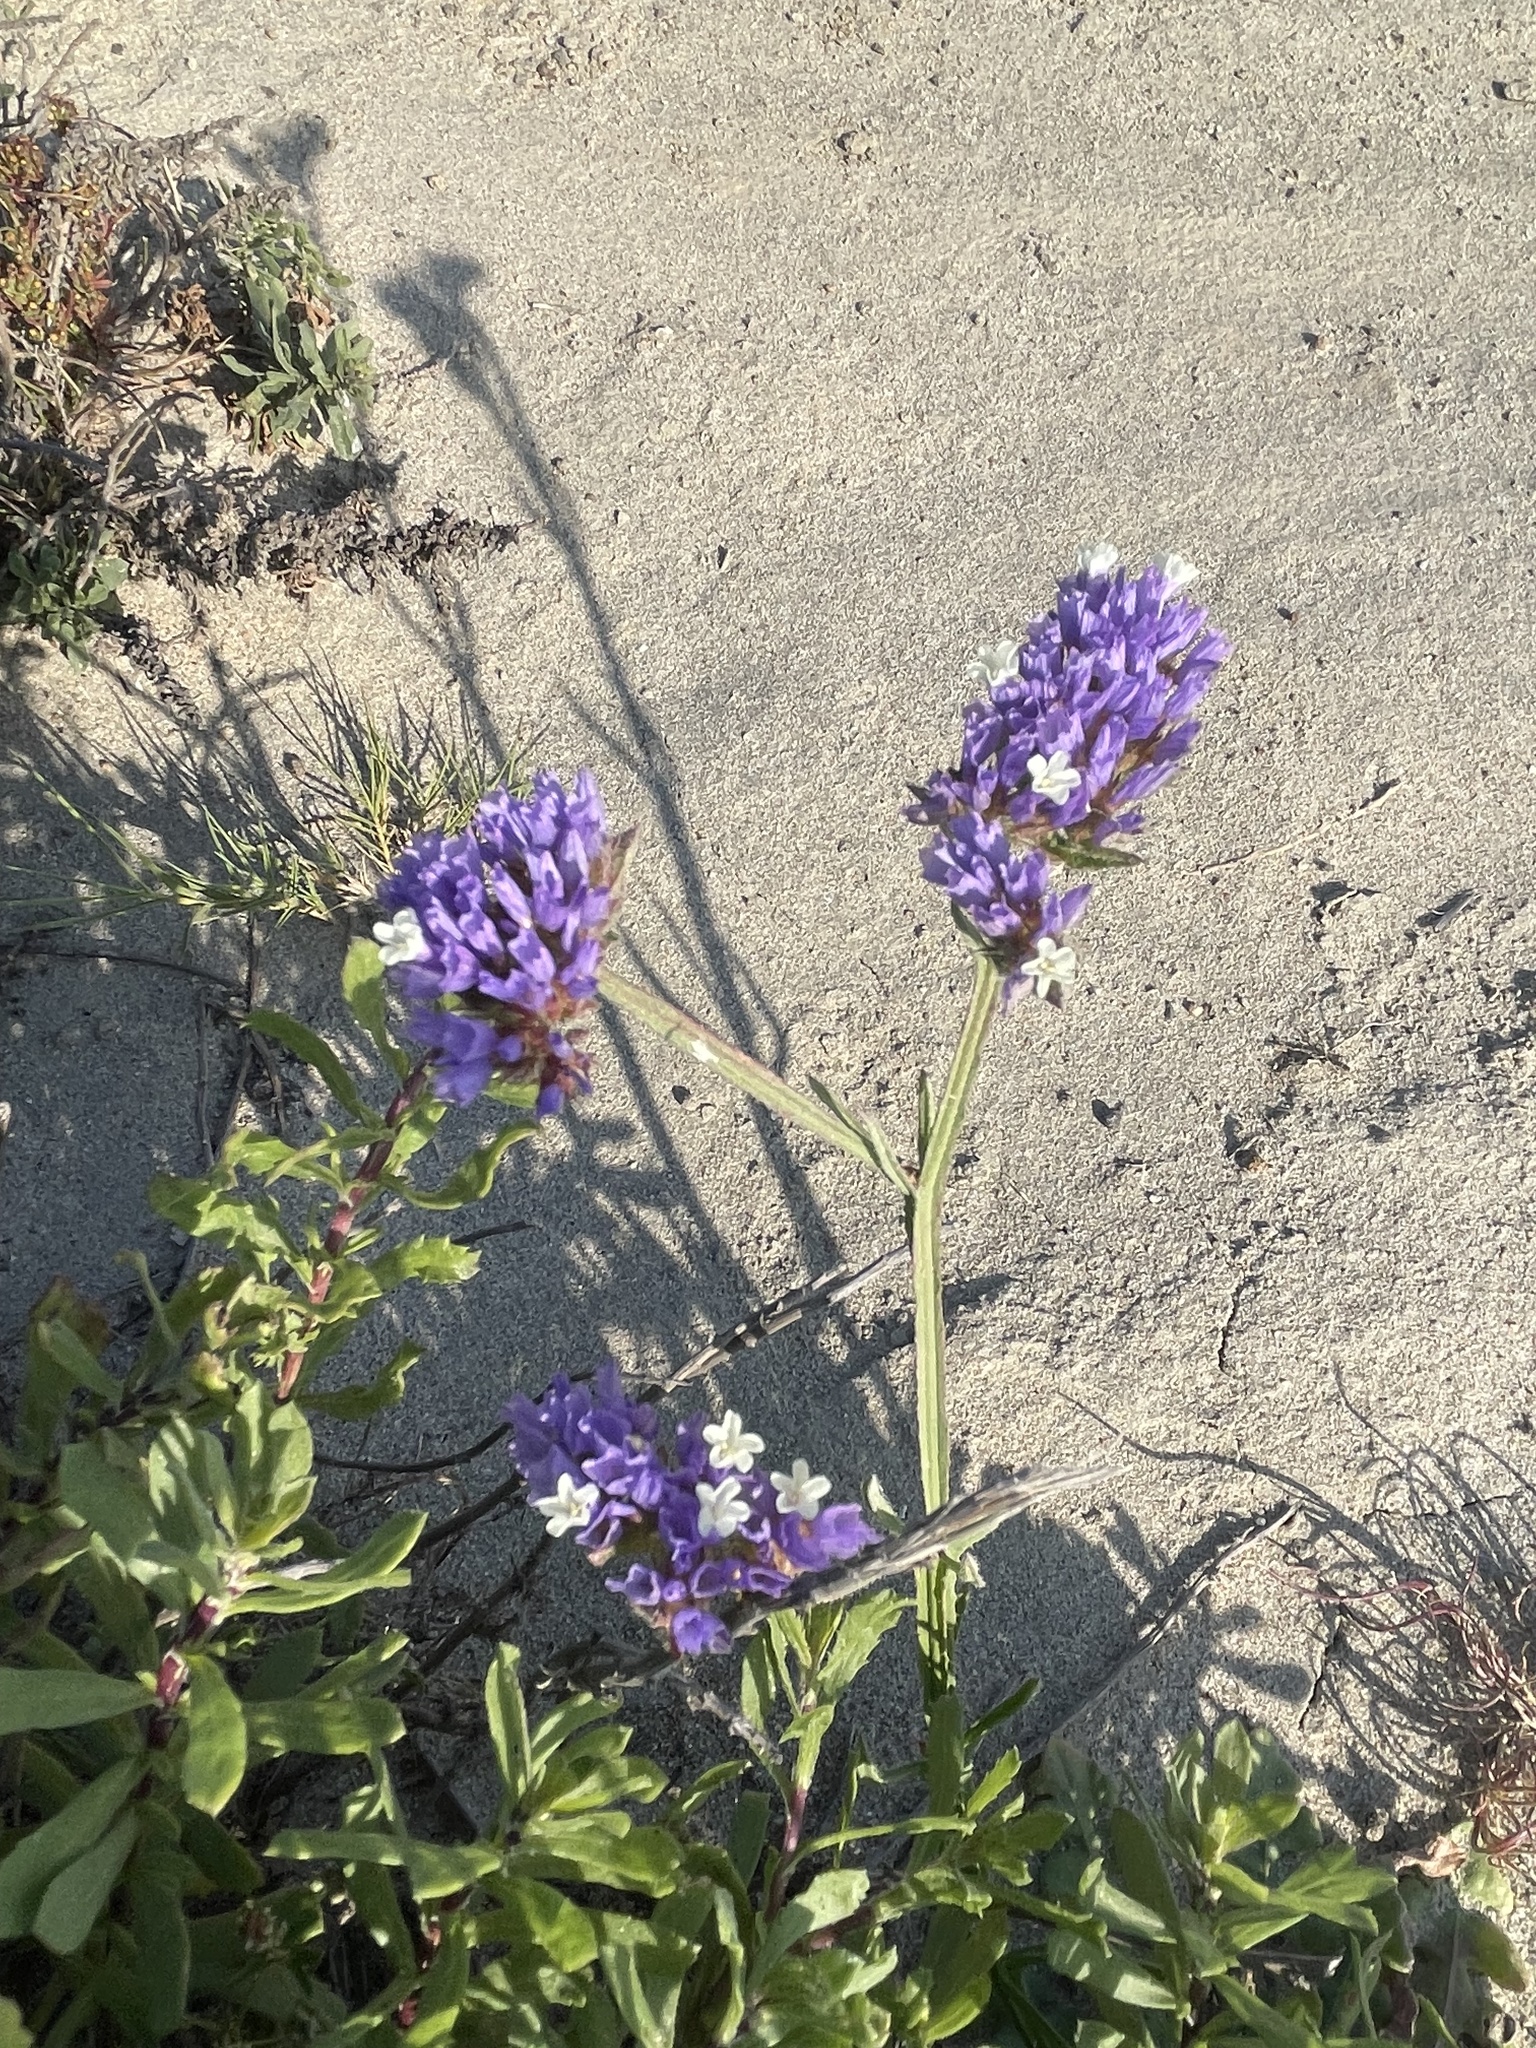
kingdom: Plantae
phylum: Tracheophyta
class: Magnoliopsida
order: Caryophyllales
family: Plumbaginaceae
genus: Limonium
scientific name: Limonium sinuatum
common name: Statice
